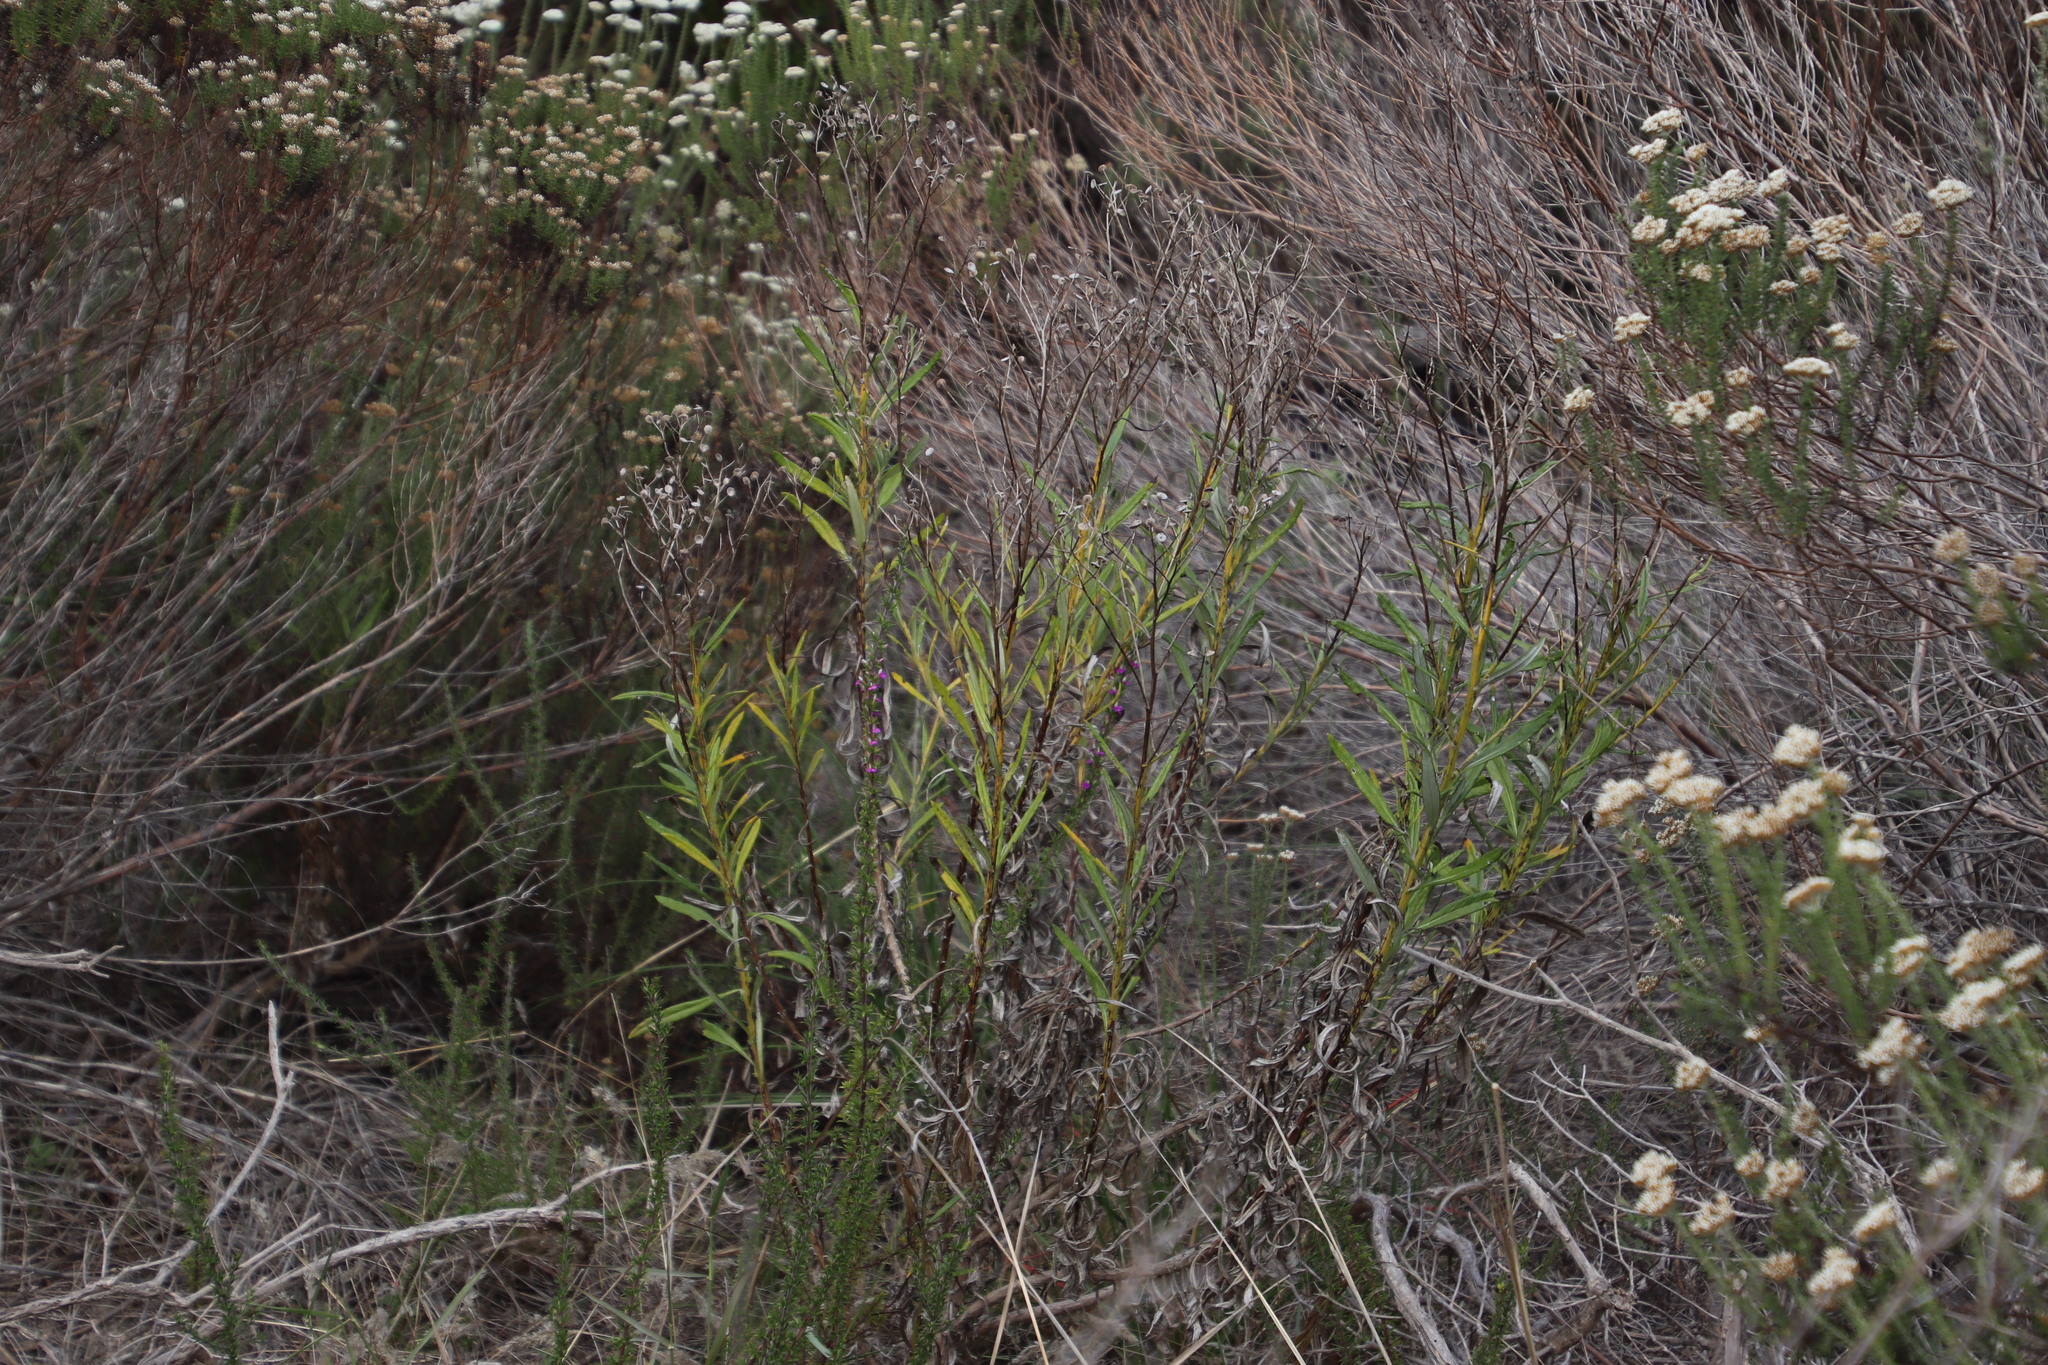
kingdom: Plantae
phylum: Tracheophyta
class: Magnoliopsida
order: Asterales
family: Asteraceae
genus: Senecio
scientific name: Senecio pterophorus
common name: Shoddy ragwort
